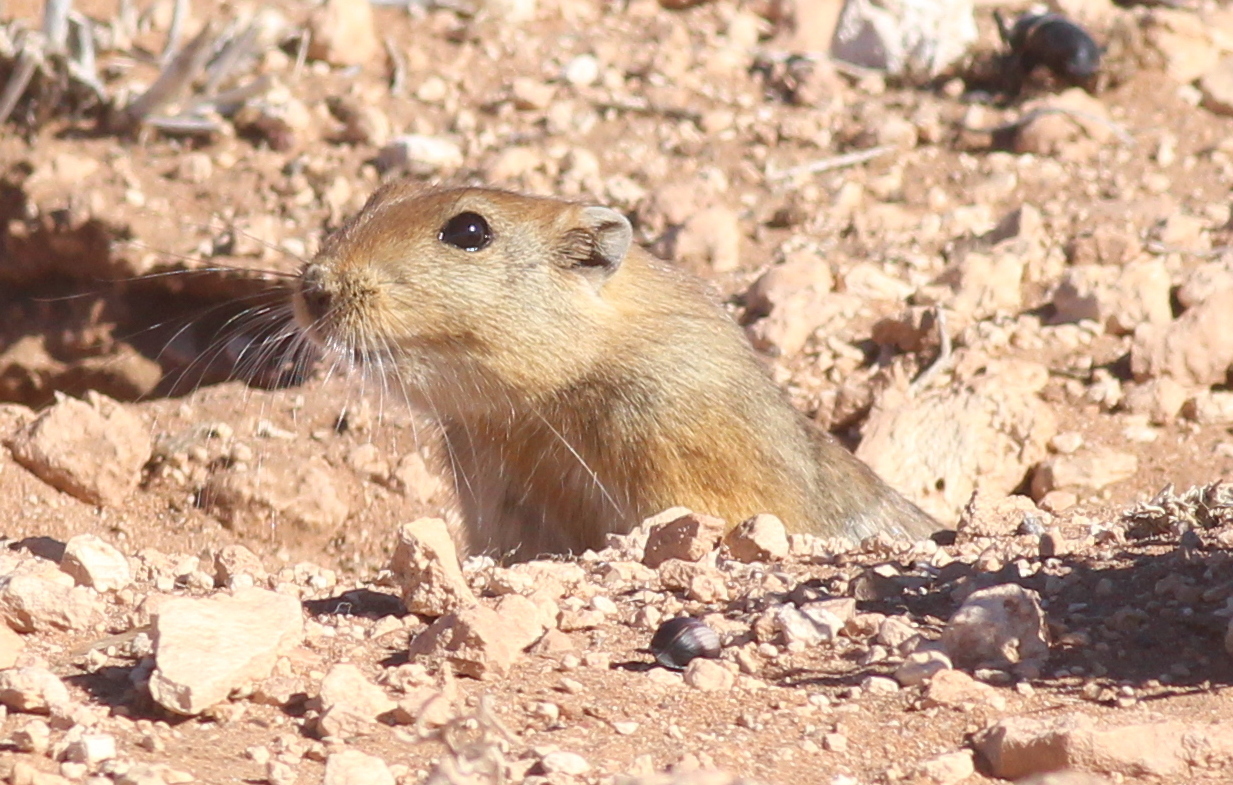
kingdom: Animalia
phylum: Chordata
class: Mammalia
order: Rodentia
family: Muridae
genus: Psammomys
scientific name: Psammomys obesus
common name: Fat sand rat
